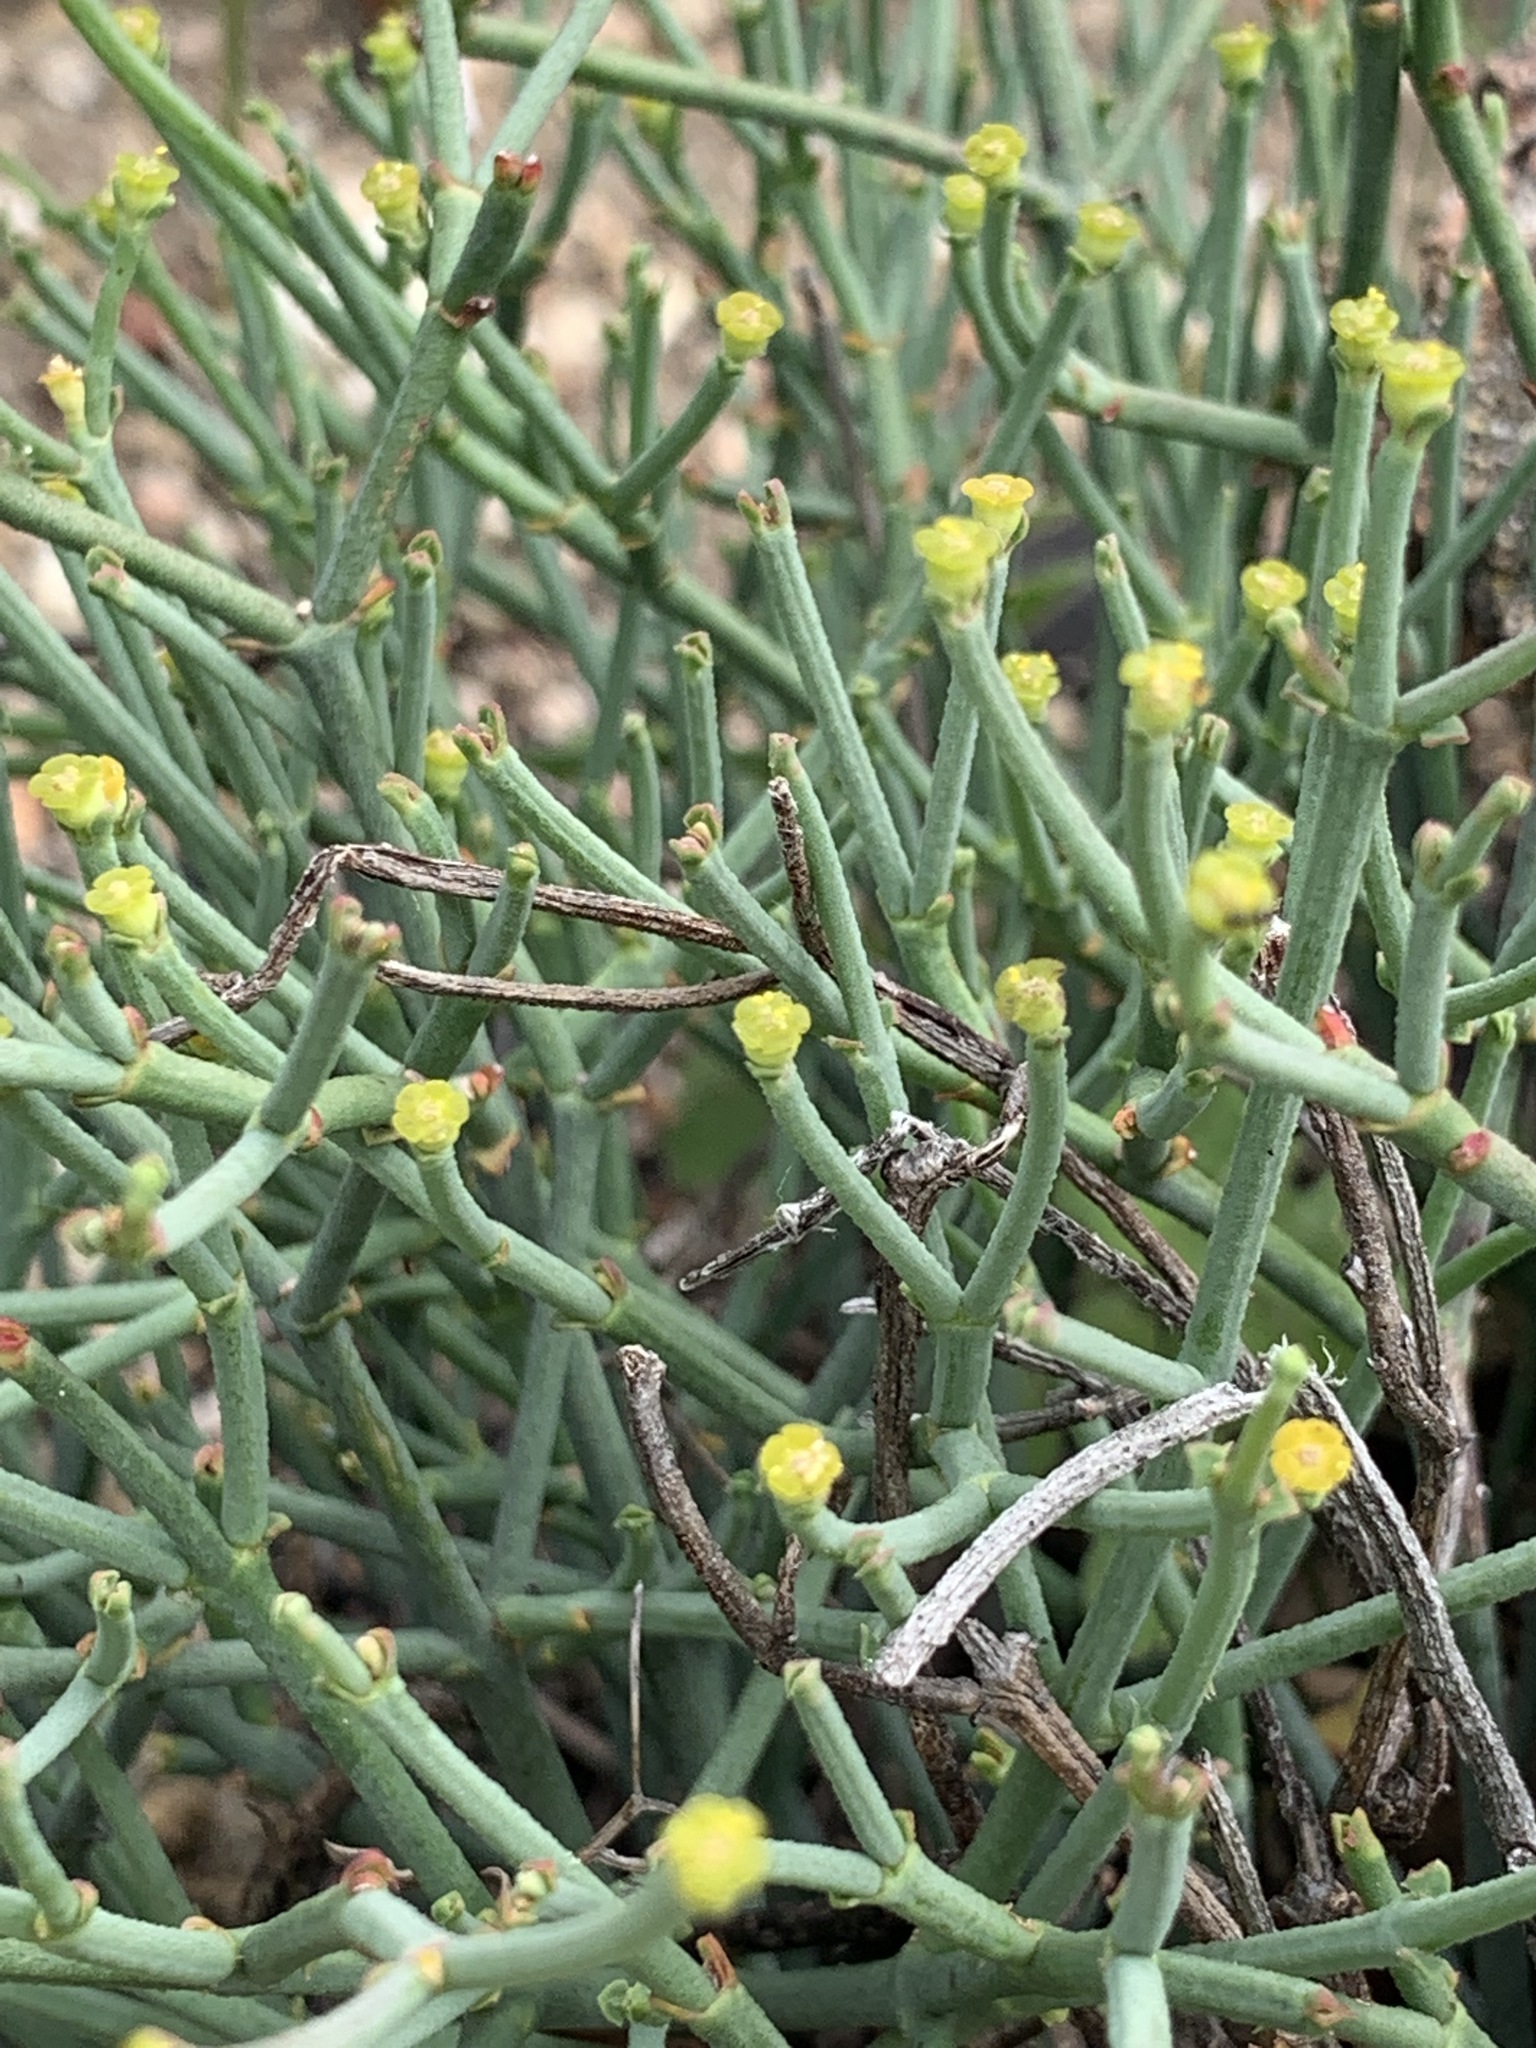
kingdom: Plantae
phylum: Tracheophyta
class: Magnoliopsida
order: Malpighiales
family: Euphorbiaceae
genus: Euphorbia
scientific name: Euphorbia tenax
